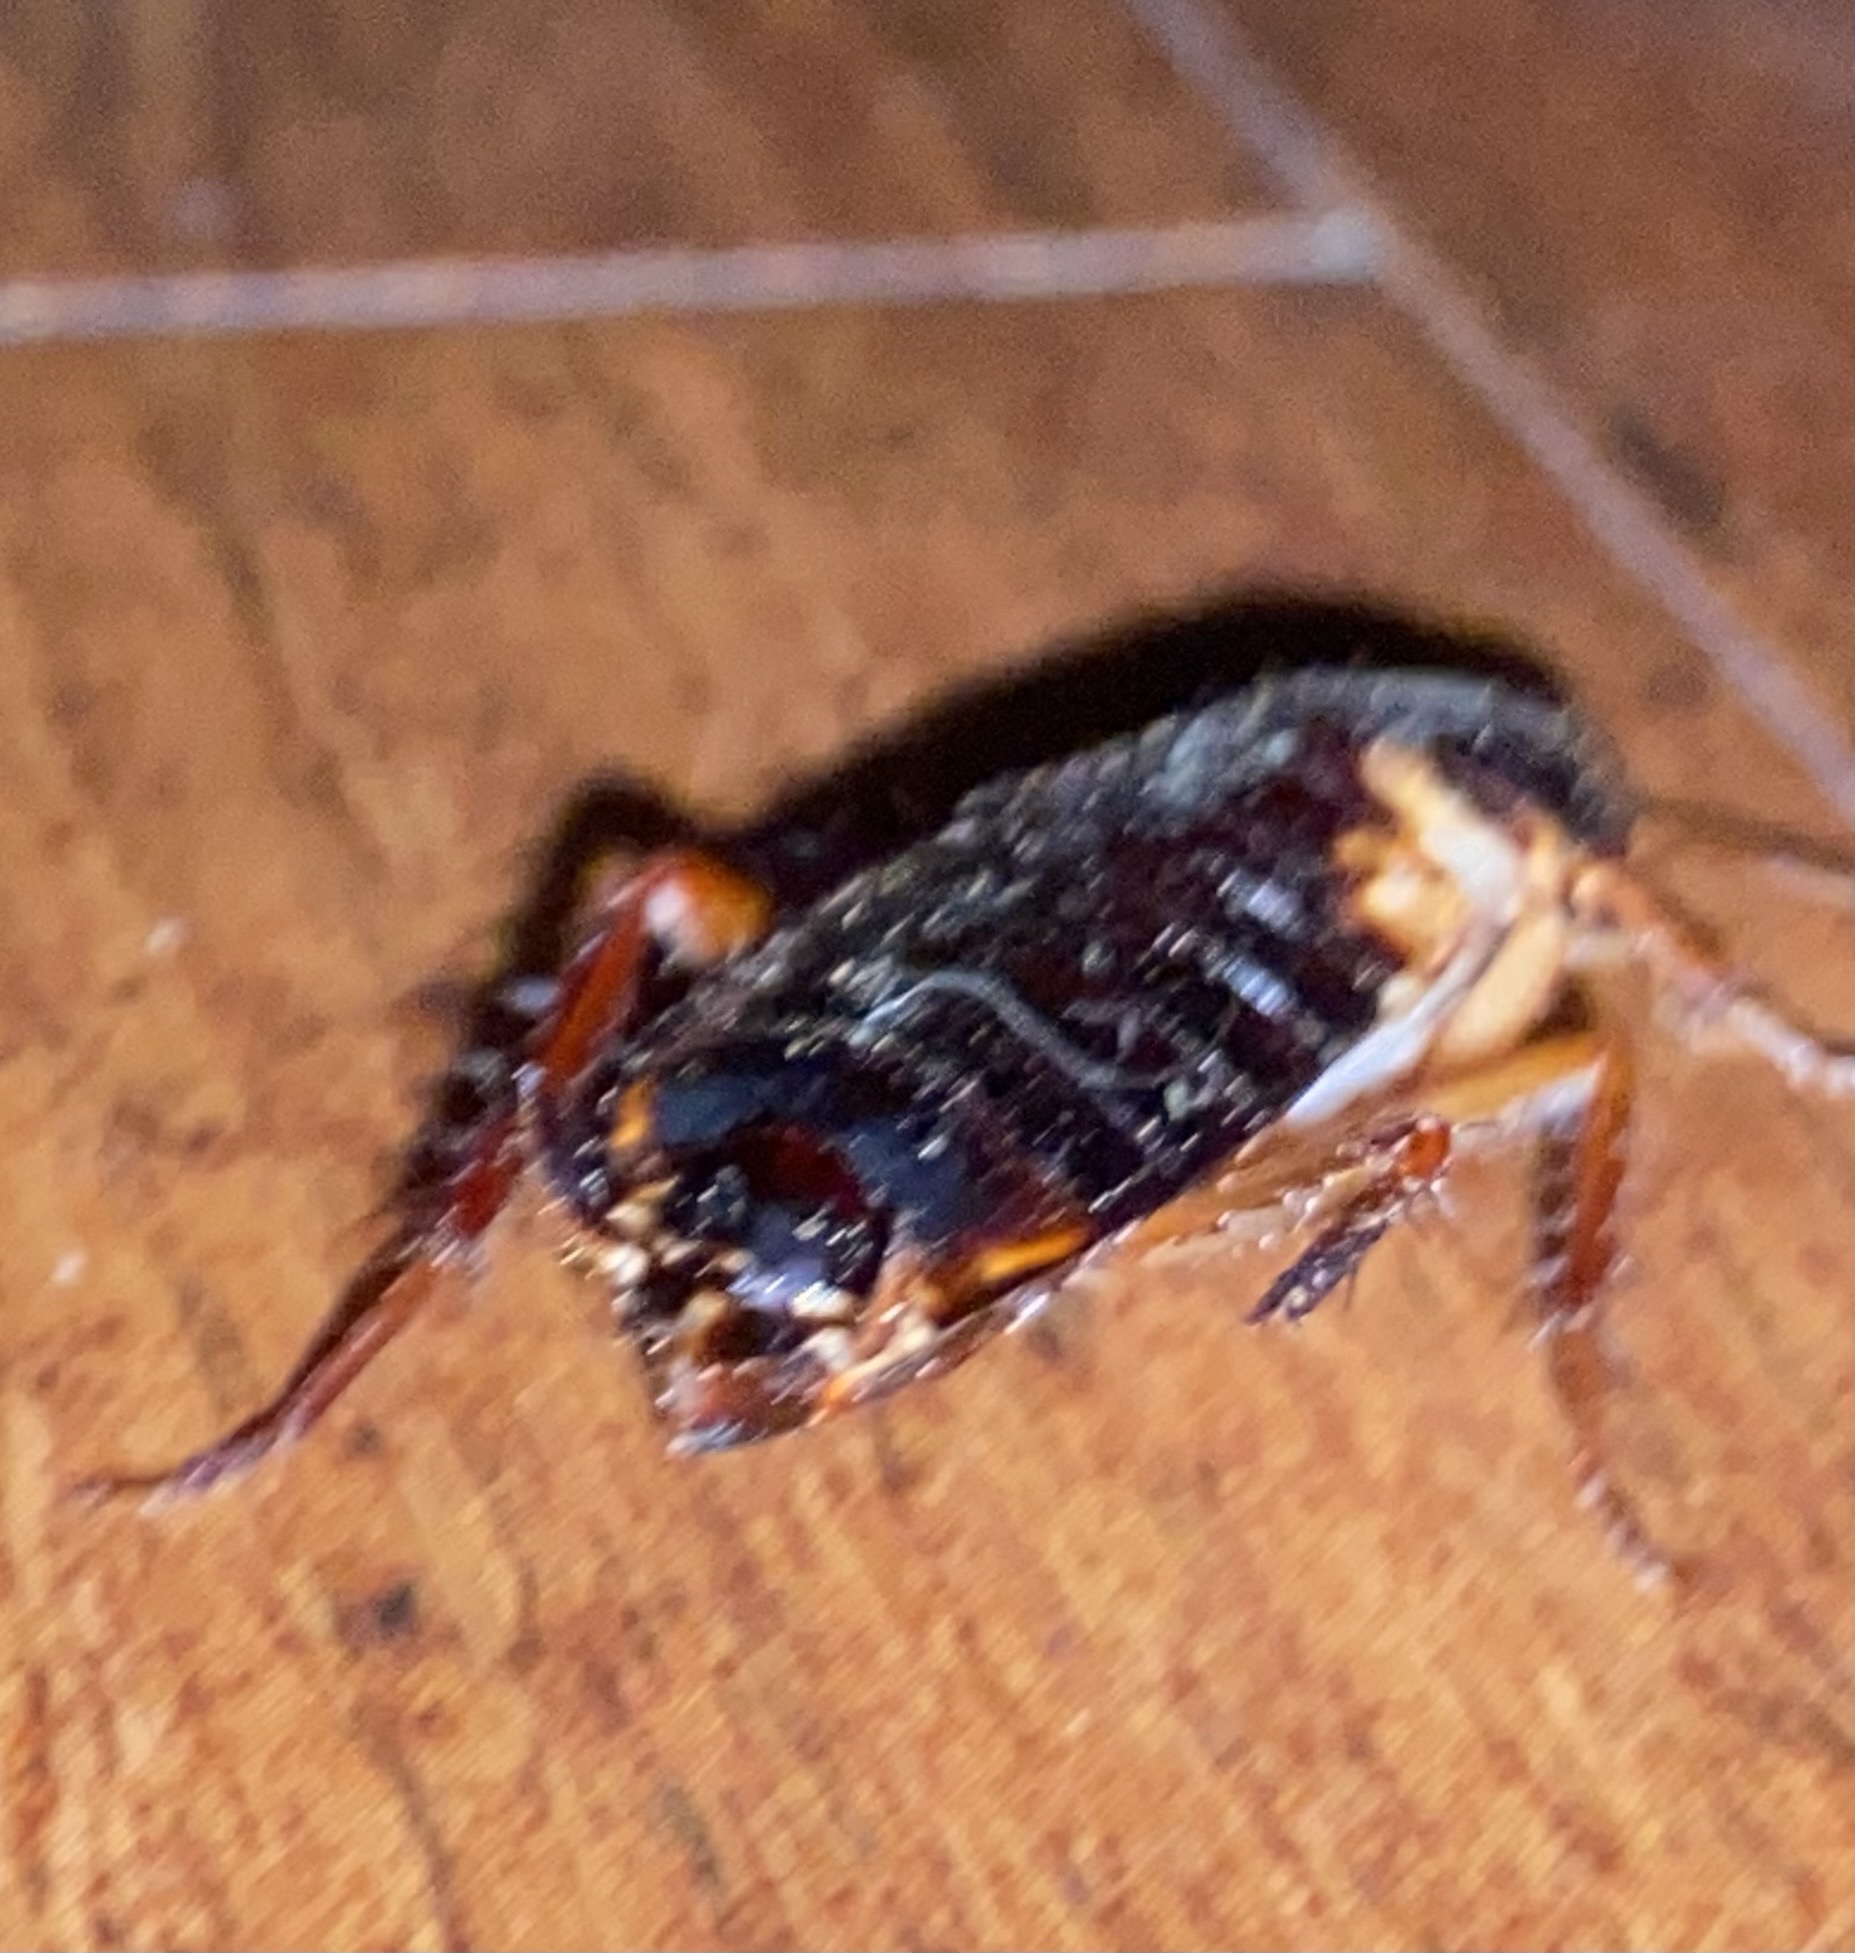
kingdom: Animalia
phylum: Arthropoda
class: Insecta
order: Blattodea
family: Blattidae
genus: Periplaneta
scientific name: Periplaneta lateralis
